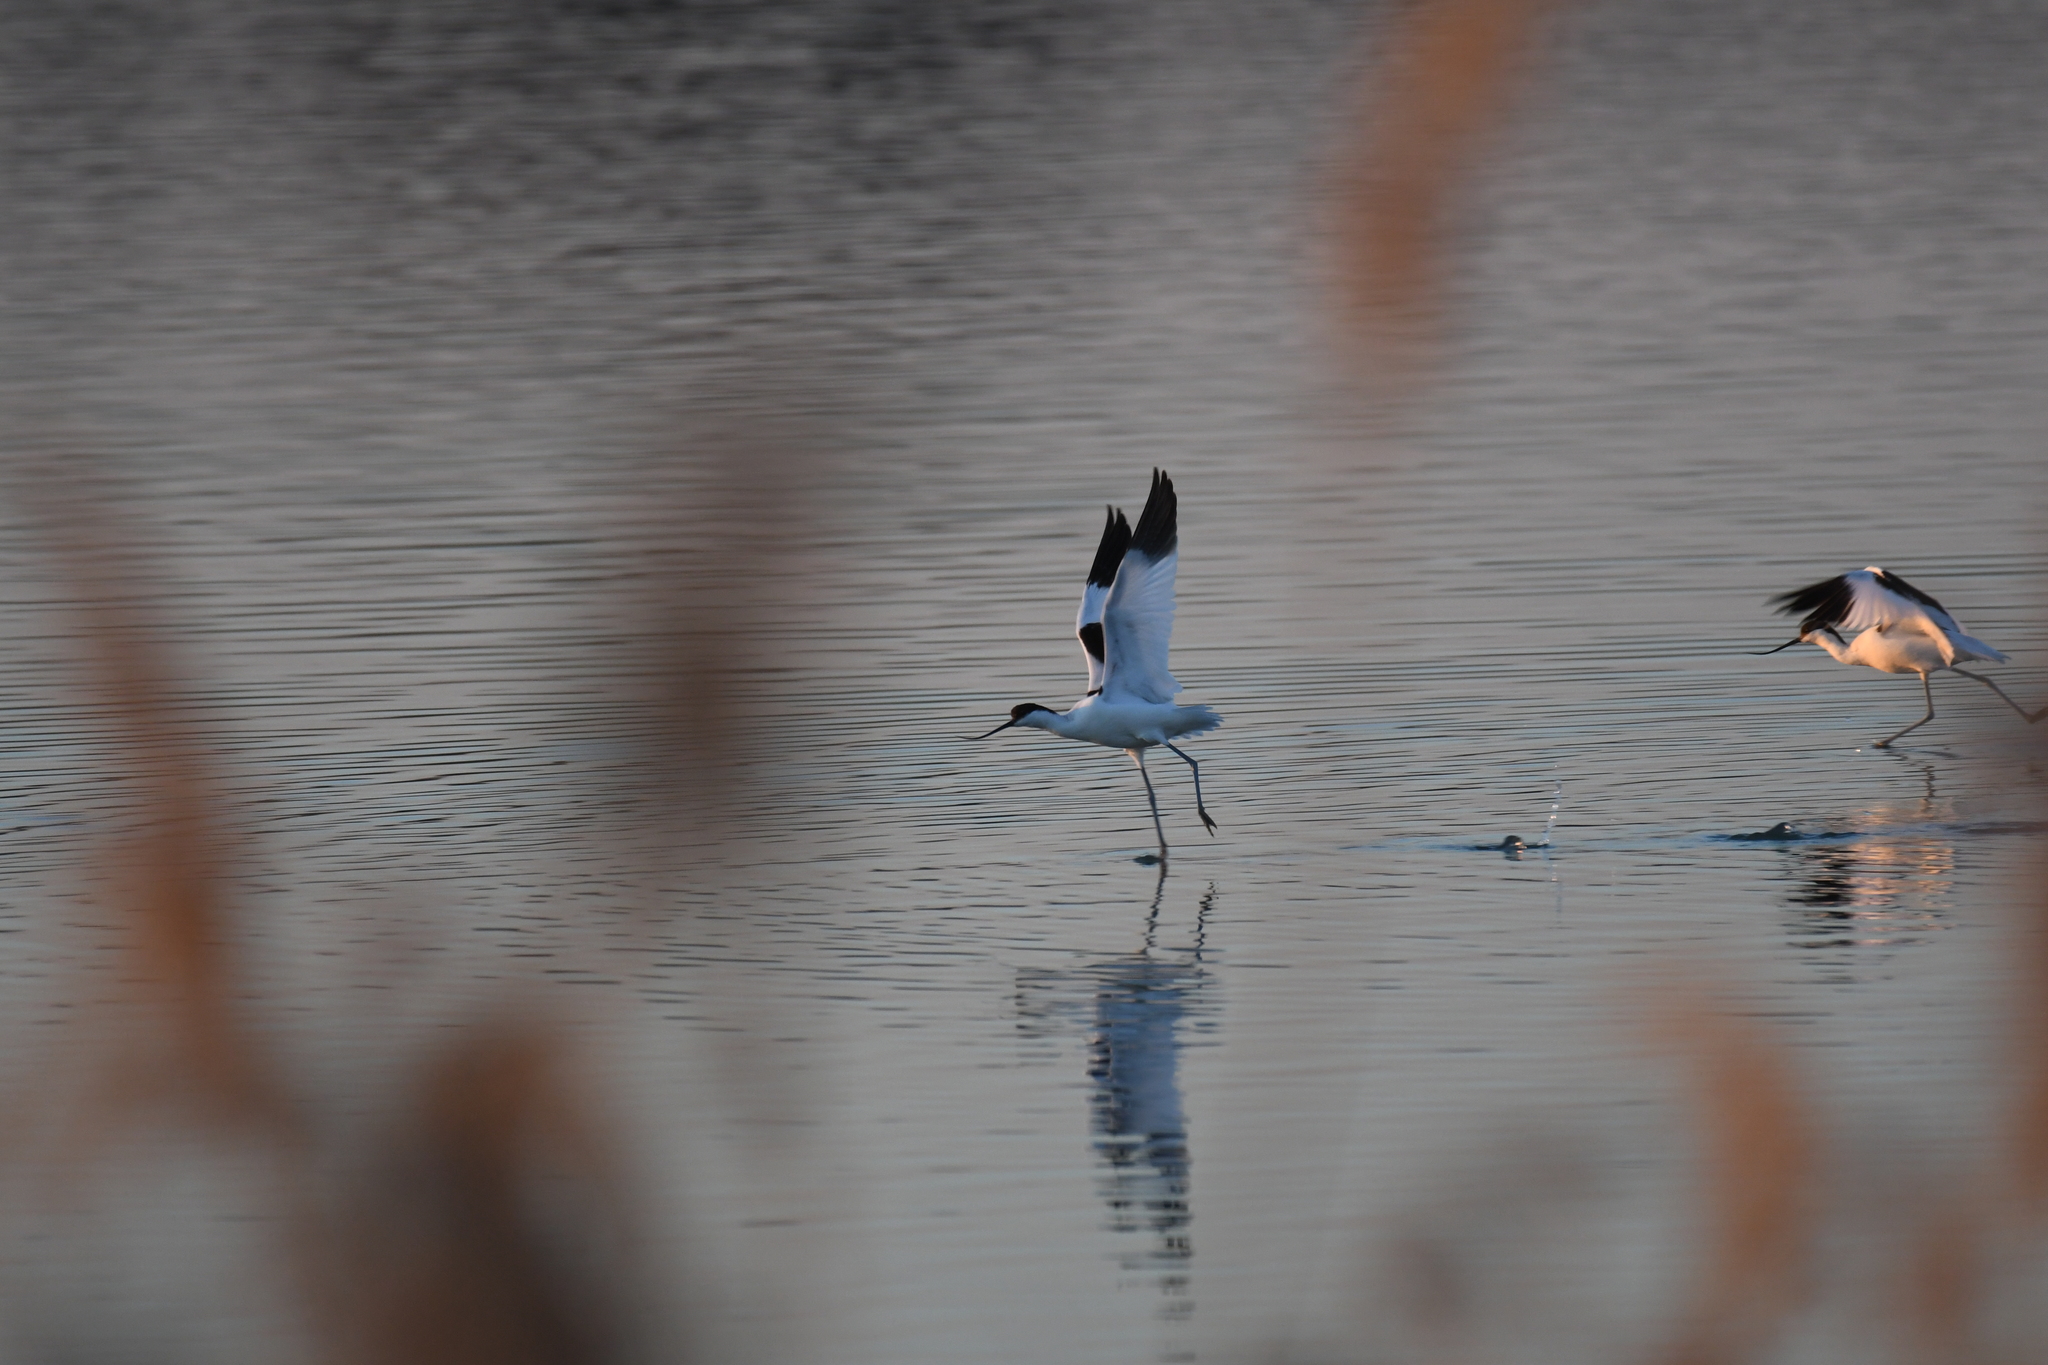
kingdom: Animalia
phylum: Chordata
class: Aves
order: Charadriiformes
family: Recurvirostridae
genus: Recurvirostra
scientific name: Recurvirostra avosetta
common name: Pied avocet
